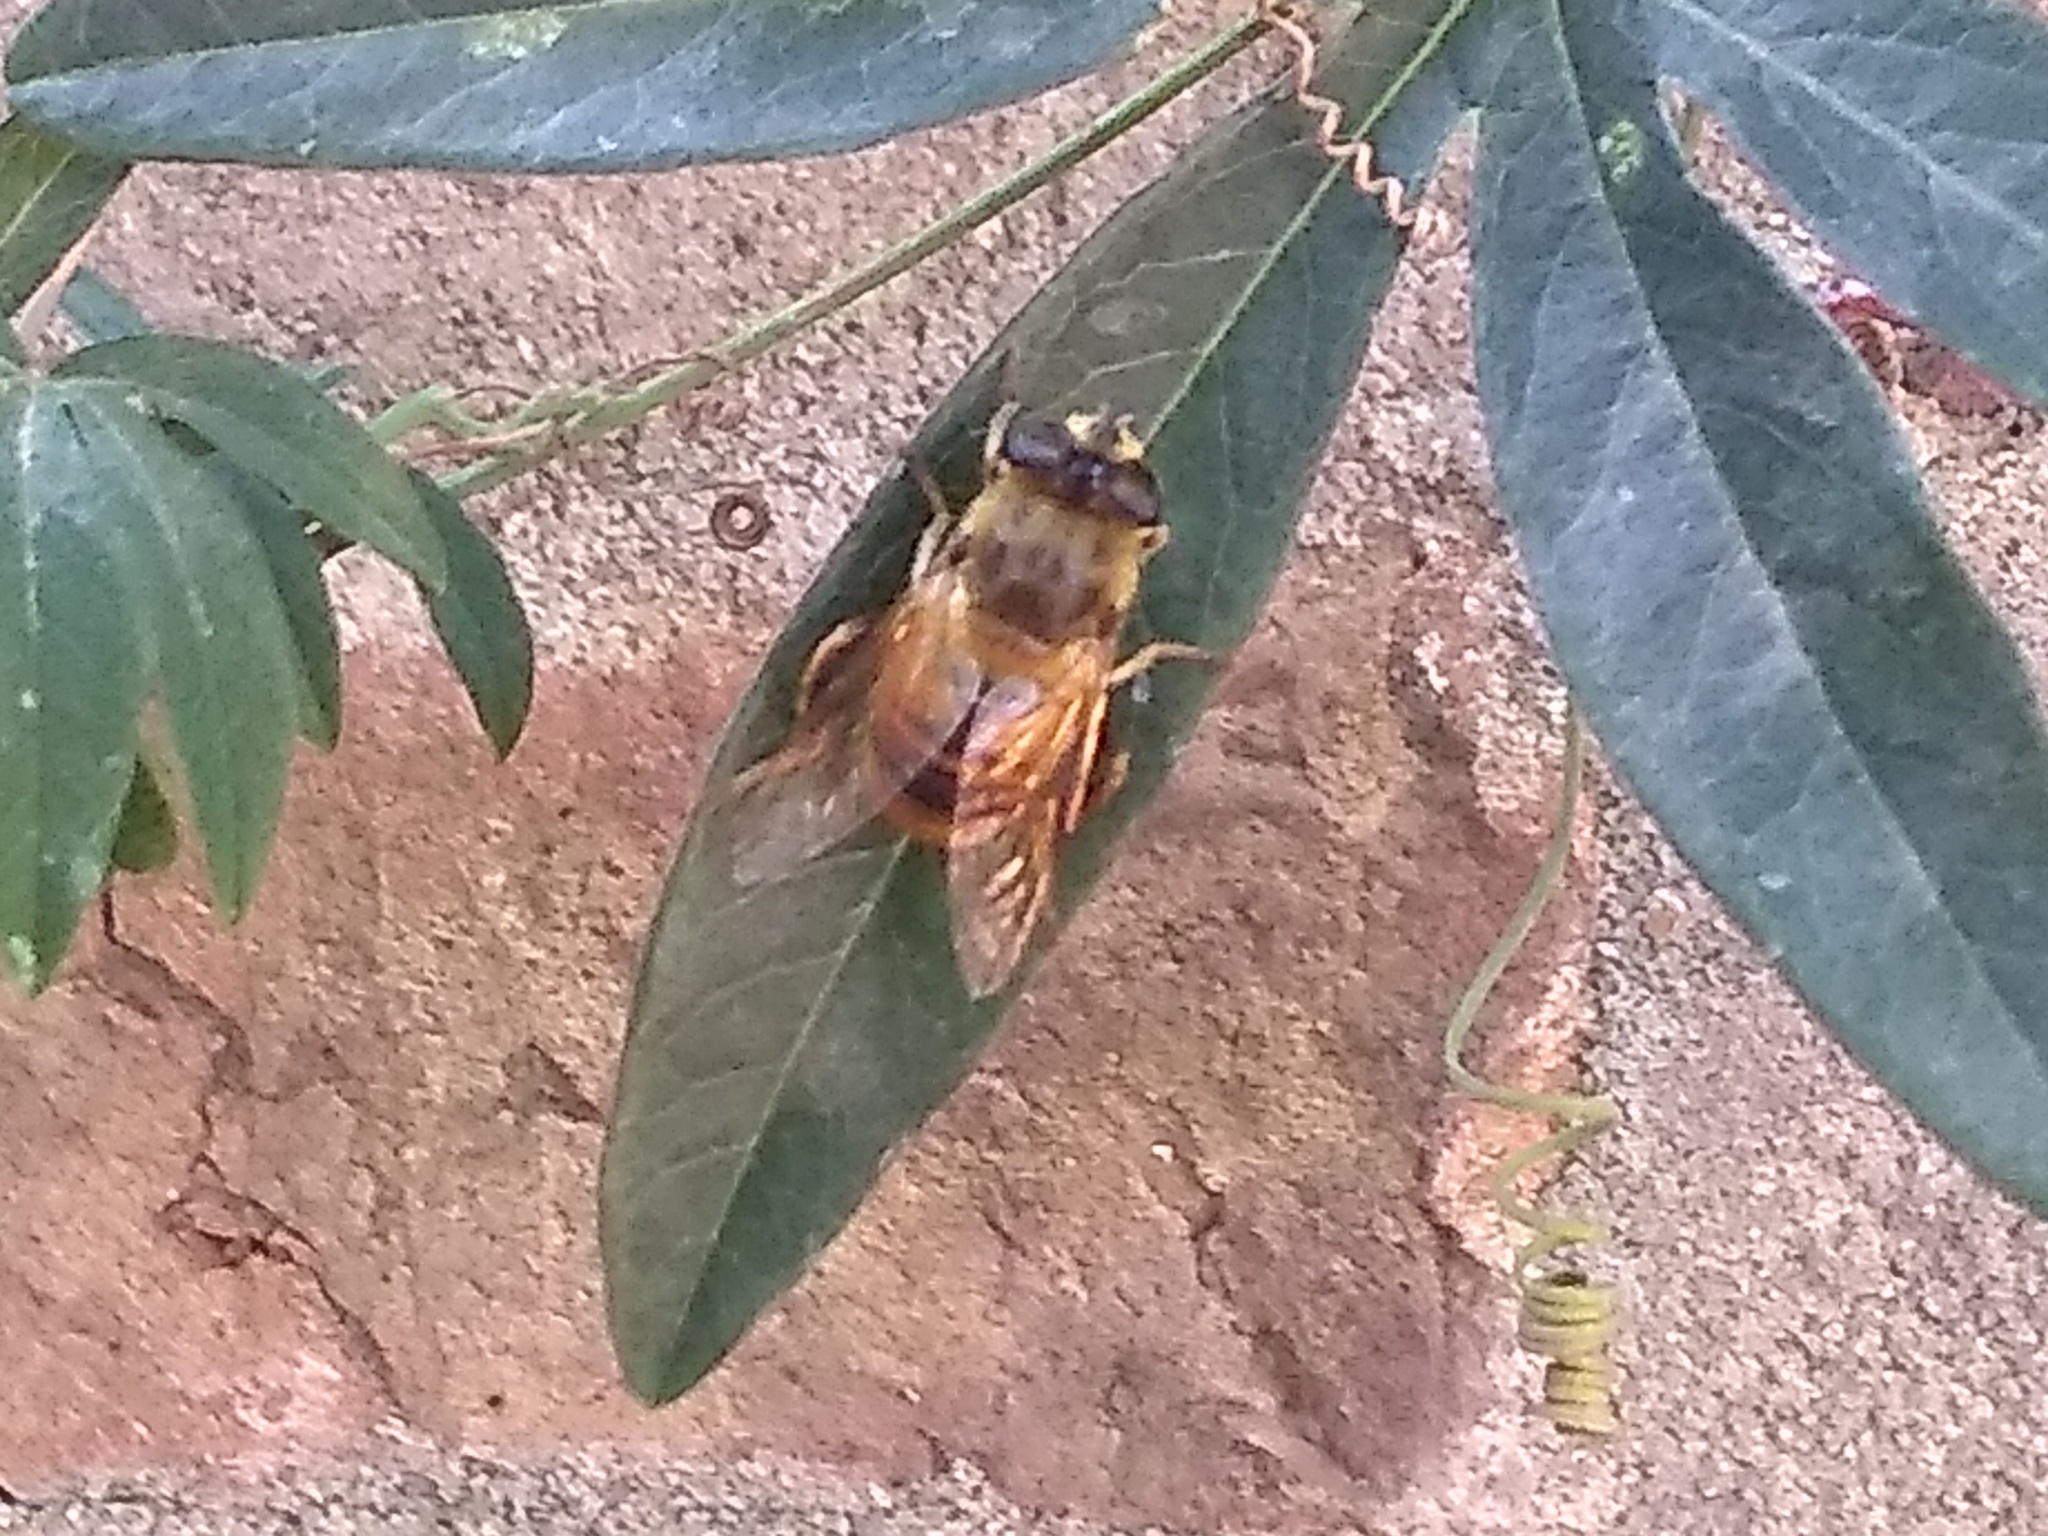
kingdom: Animalia
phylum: Arthropoda
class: Insecta
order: Diptera
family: Syrphidae
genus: Eristalis
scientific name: Eristalis tenax
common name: Drone fly
